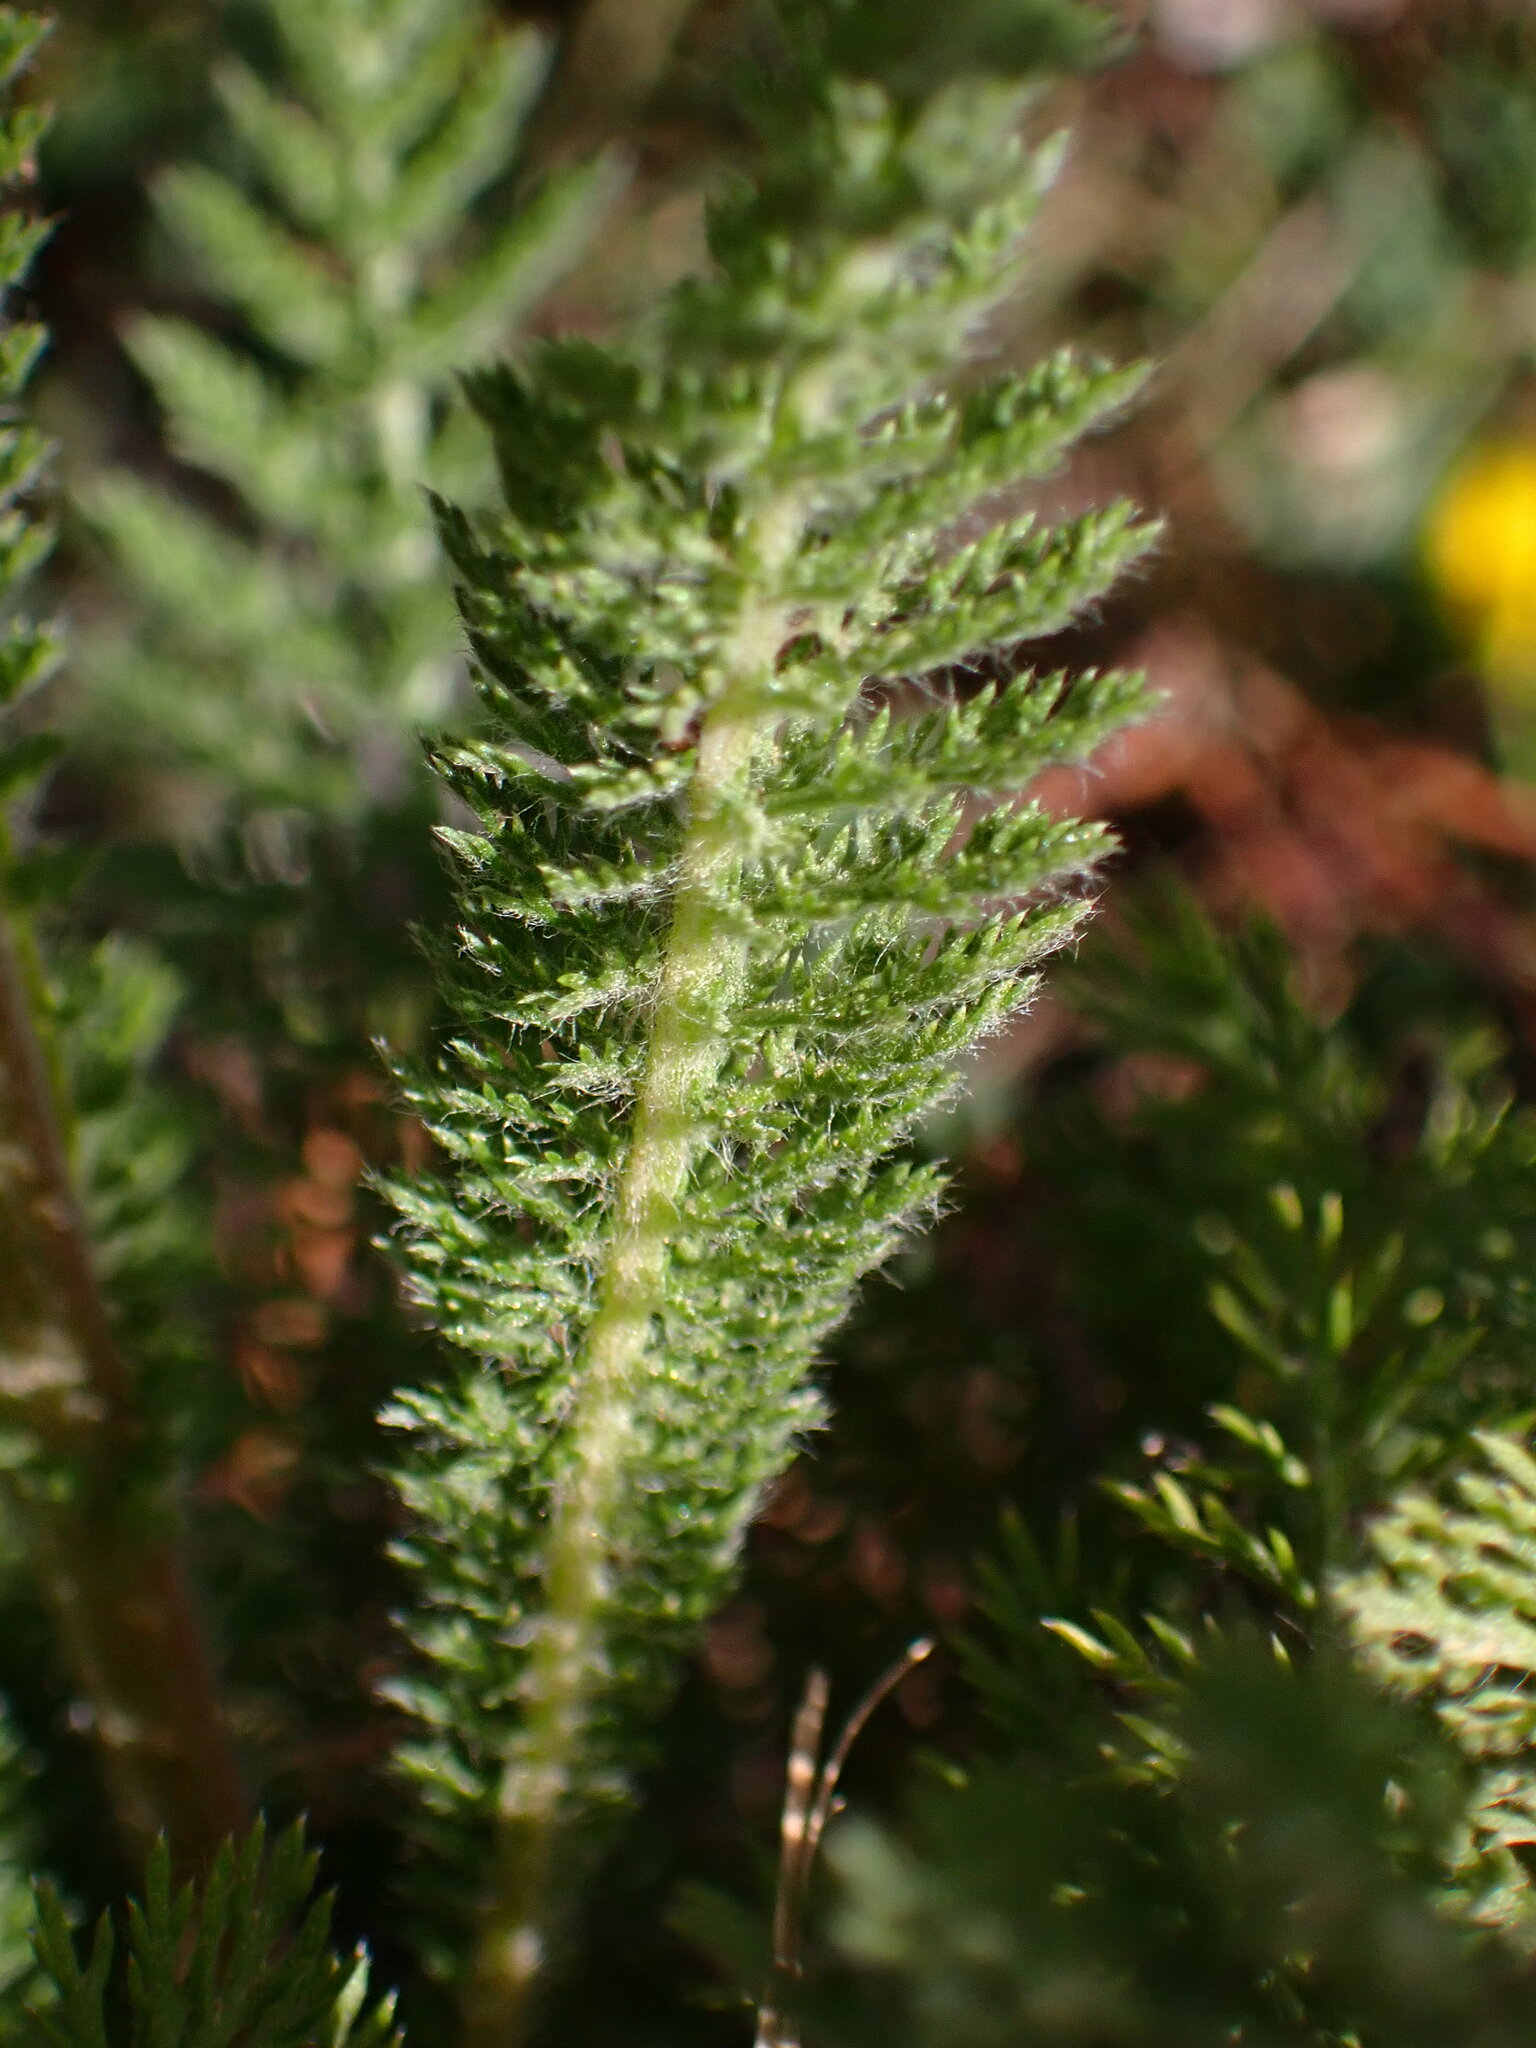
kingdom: Plantae
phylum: Tracheophyta
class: Magnoliopsida
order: Asterales
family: Asteraceae
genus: Achillea
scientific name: Achillea millefolium
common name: Yarrow
